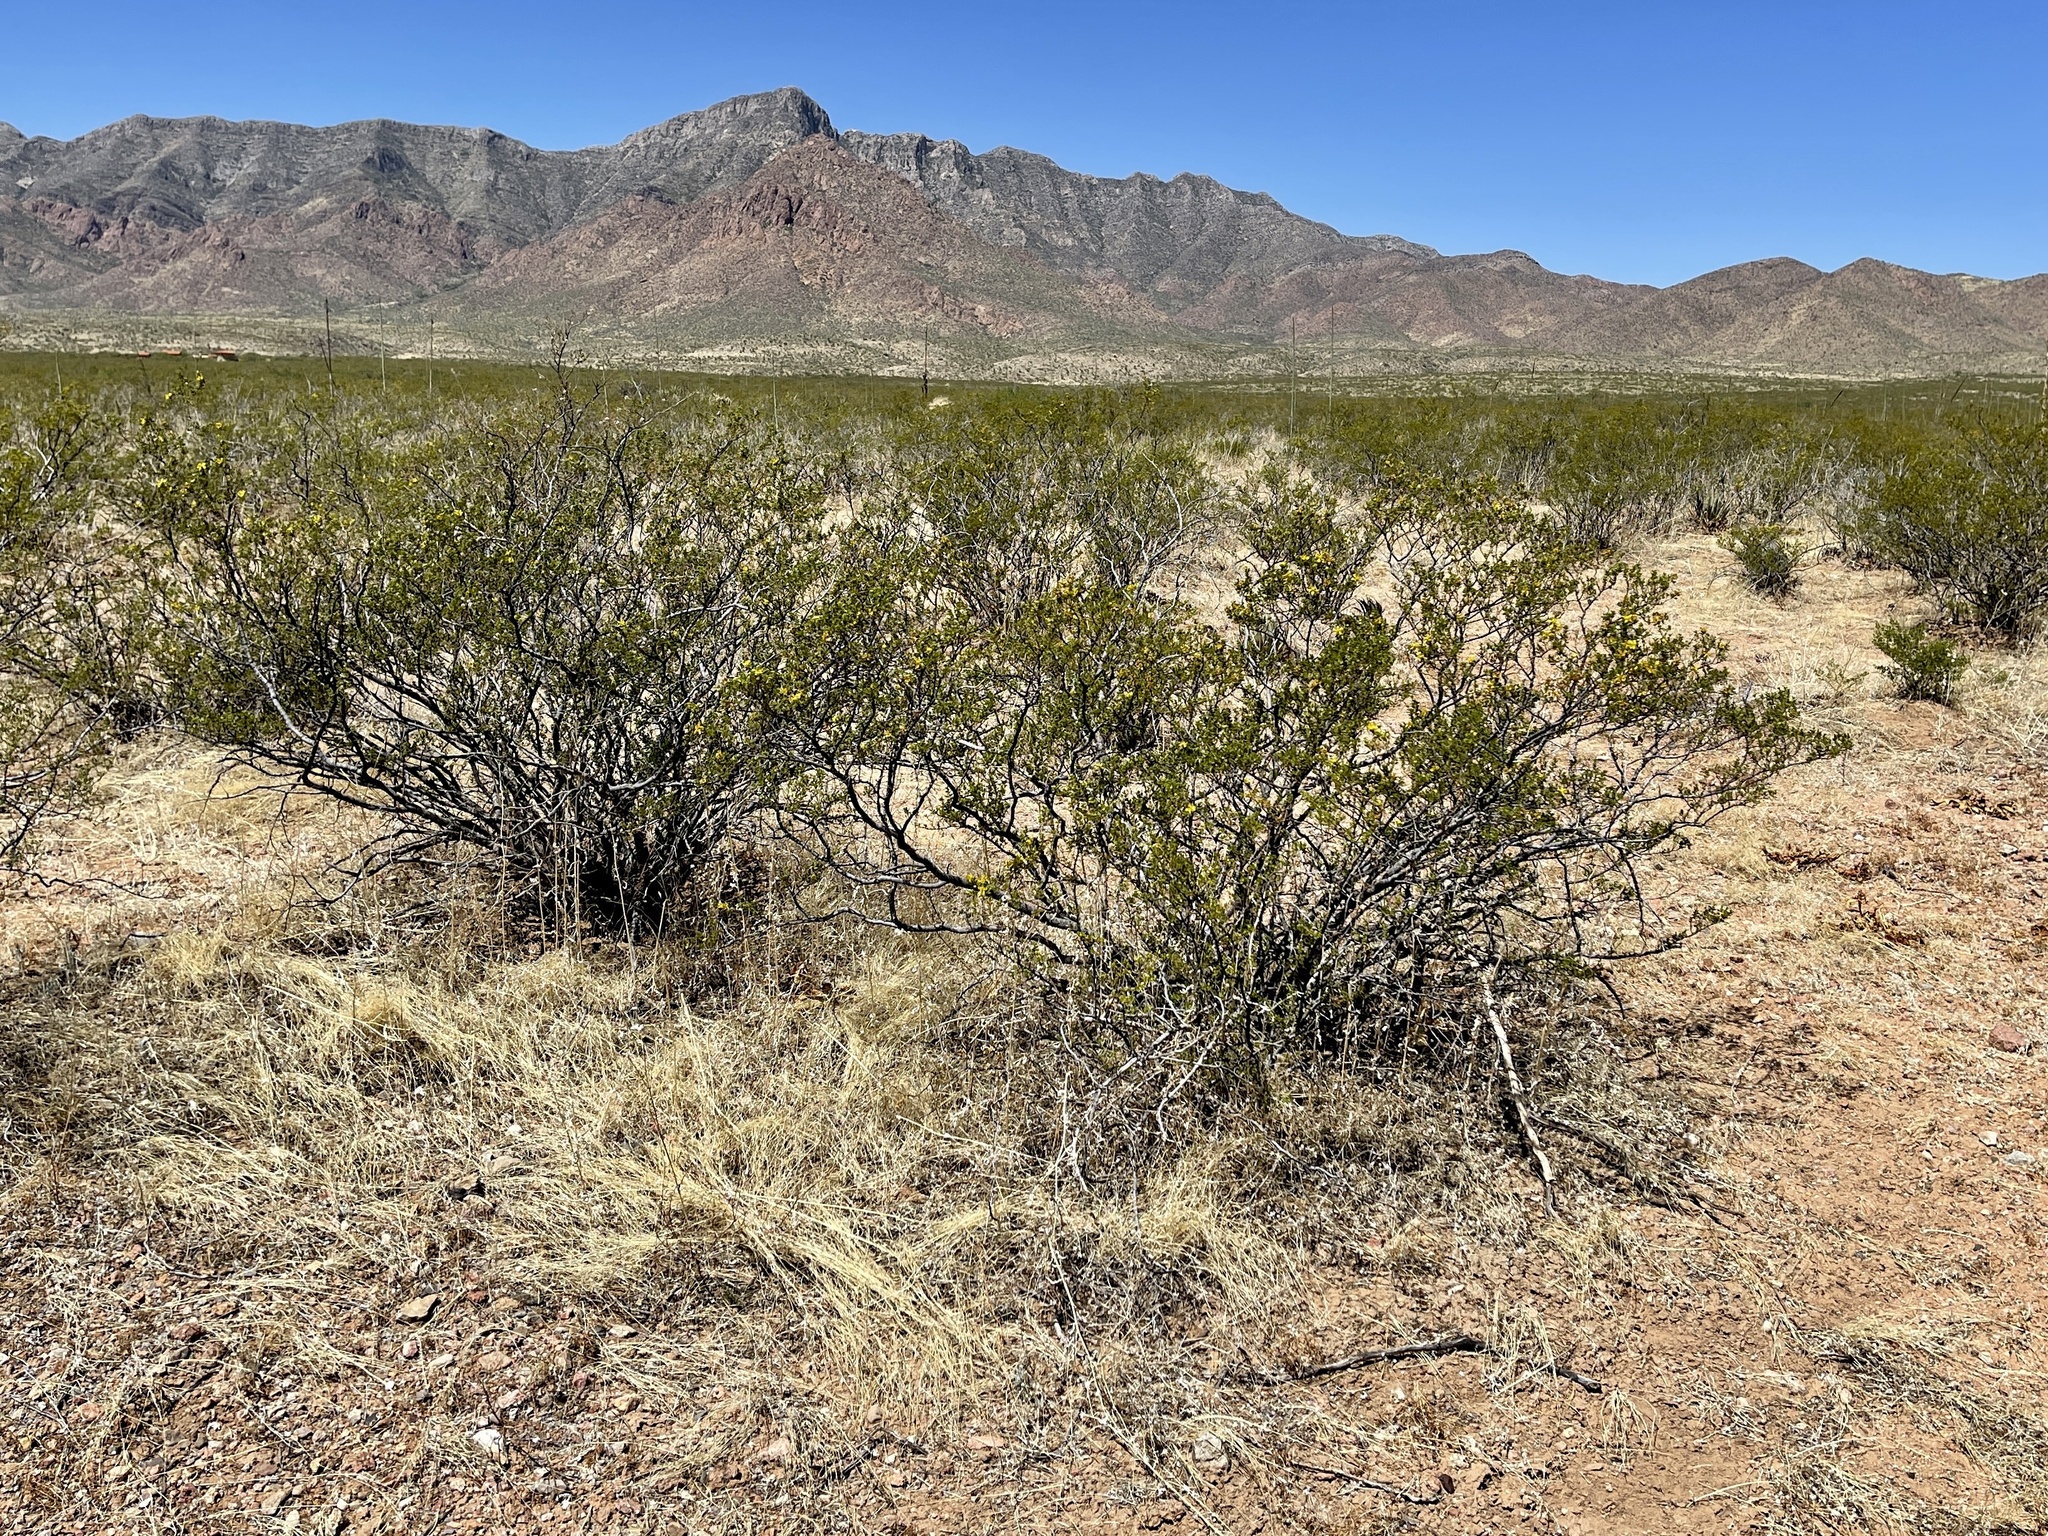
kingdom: Plantae
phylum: Tracheophyta
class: Magnoliopsida
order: Zygophyllales
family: Zygophyllaceae
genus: Larrea
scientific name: Larrea tridentata
